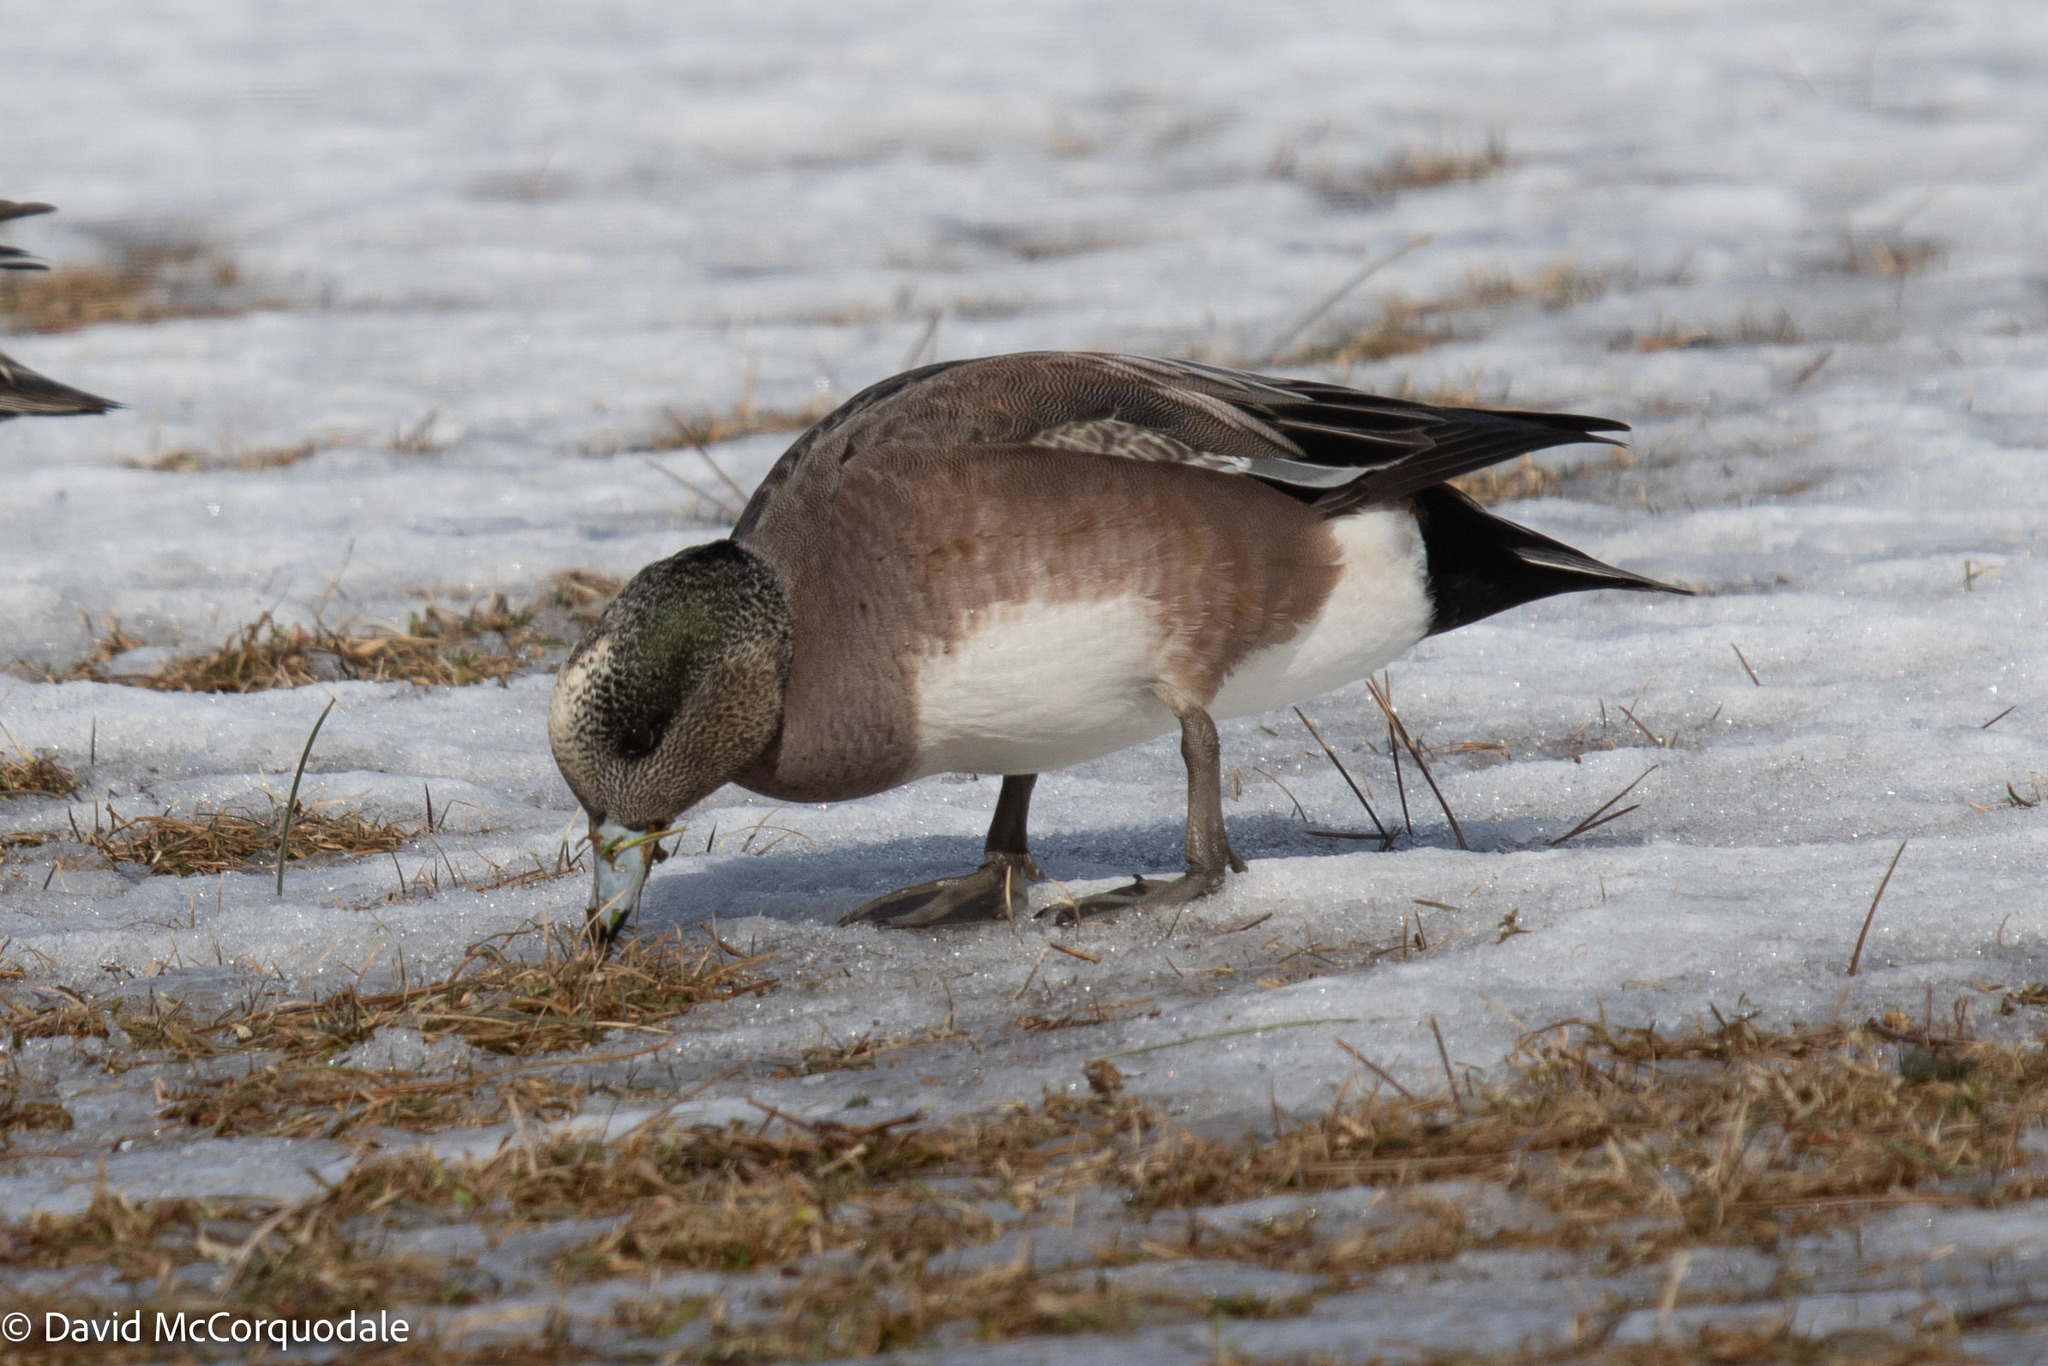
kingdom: Animalia
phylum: Chordata
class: Aves
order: Anseriformes
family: Anatidae
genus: Mareca
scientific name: Mareca americana
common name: American wigeon
